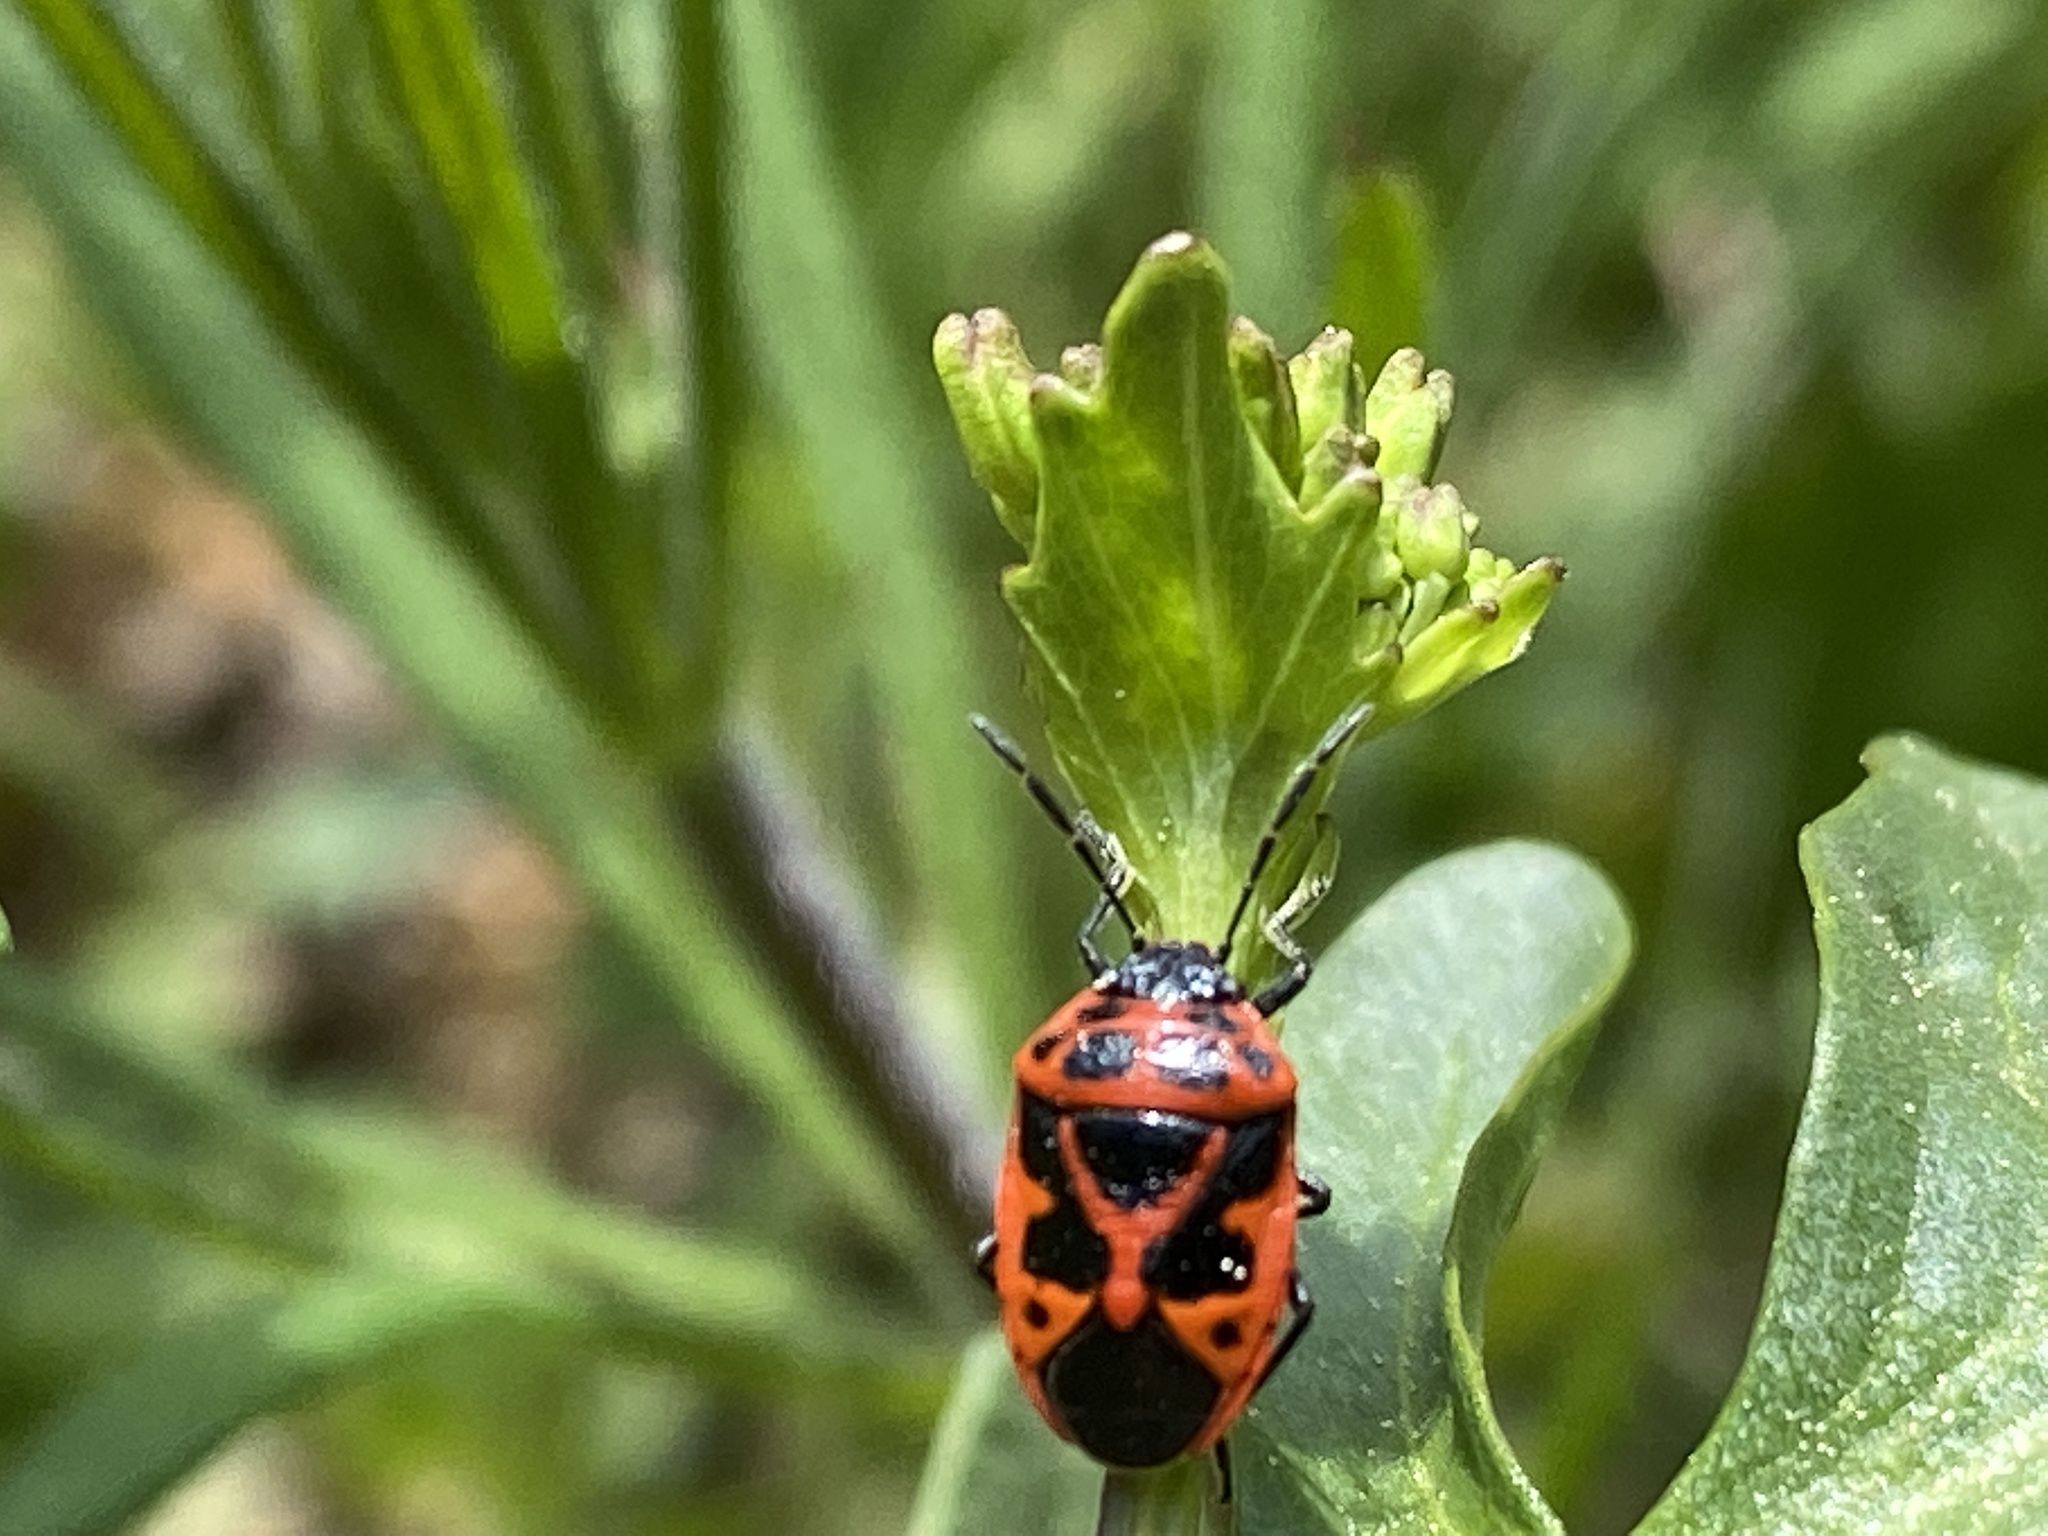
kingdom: Animalia
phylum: Arthropoda
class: Insecta
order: Hemiptera
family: Pentatomidae
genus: Eurydema
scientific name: Eurydema dominulus
